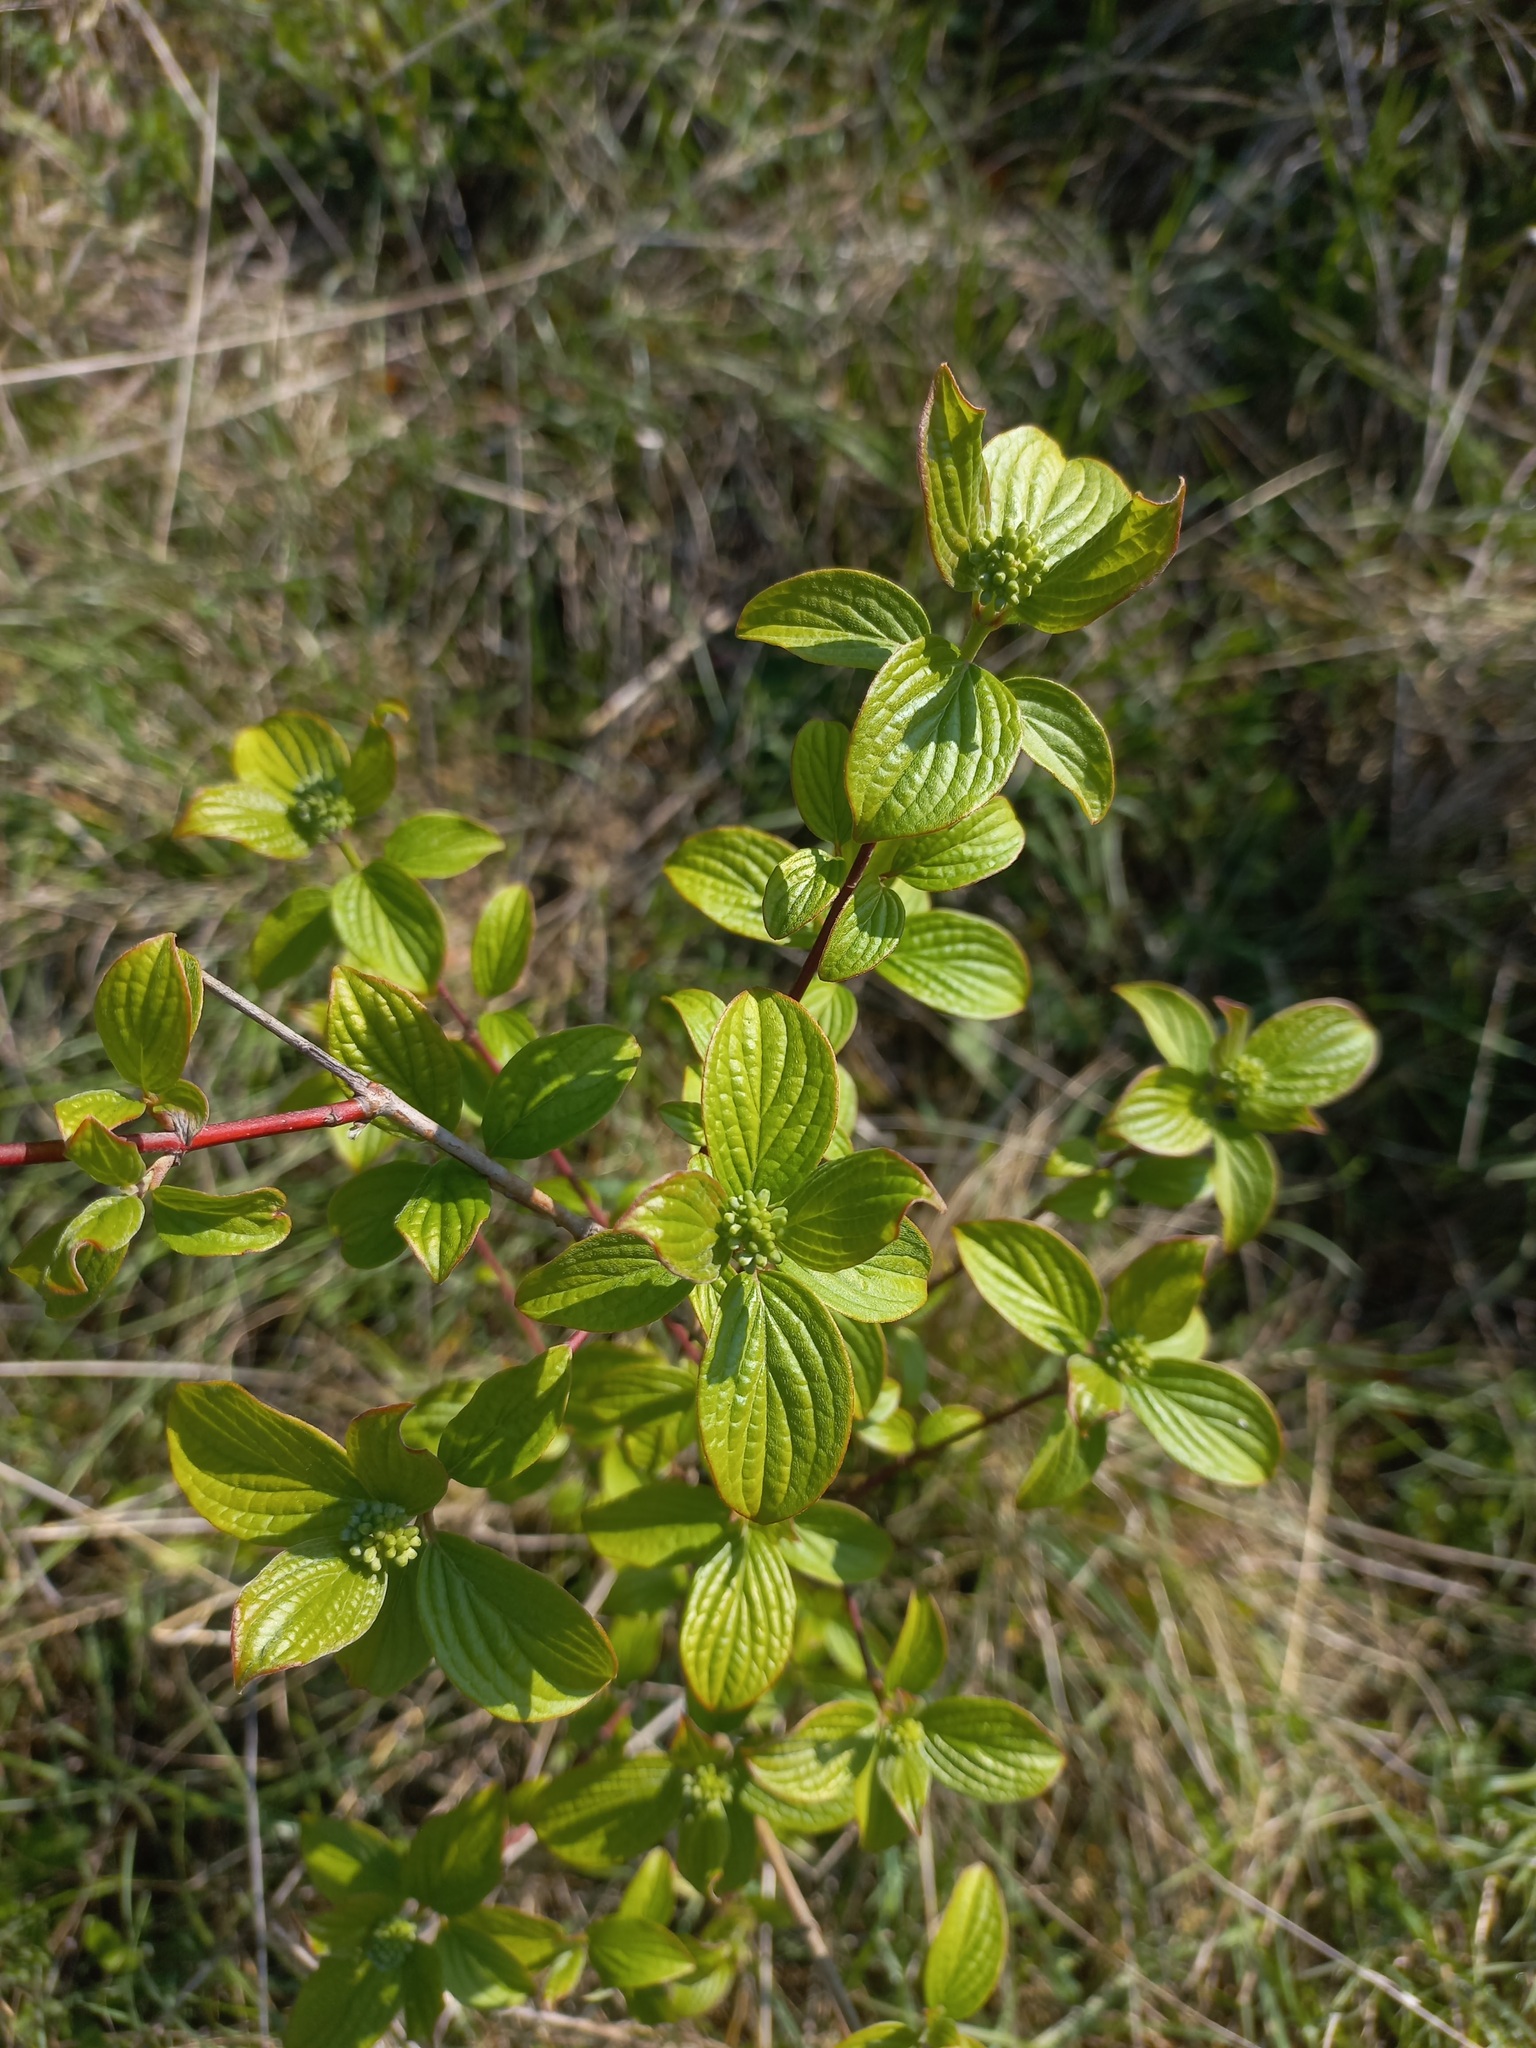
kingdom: Plantae
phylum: Tracheophyta
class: Magnoliopsida
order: Cornales
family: Cornaceae
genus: Cornus
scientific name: Cornus sanguinea
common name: Dogwood
